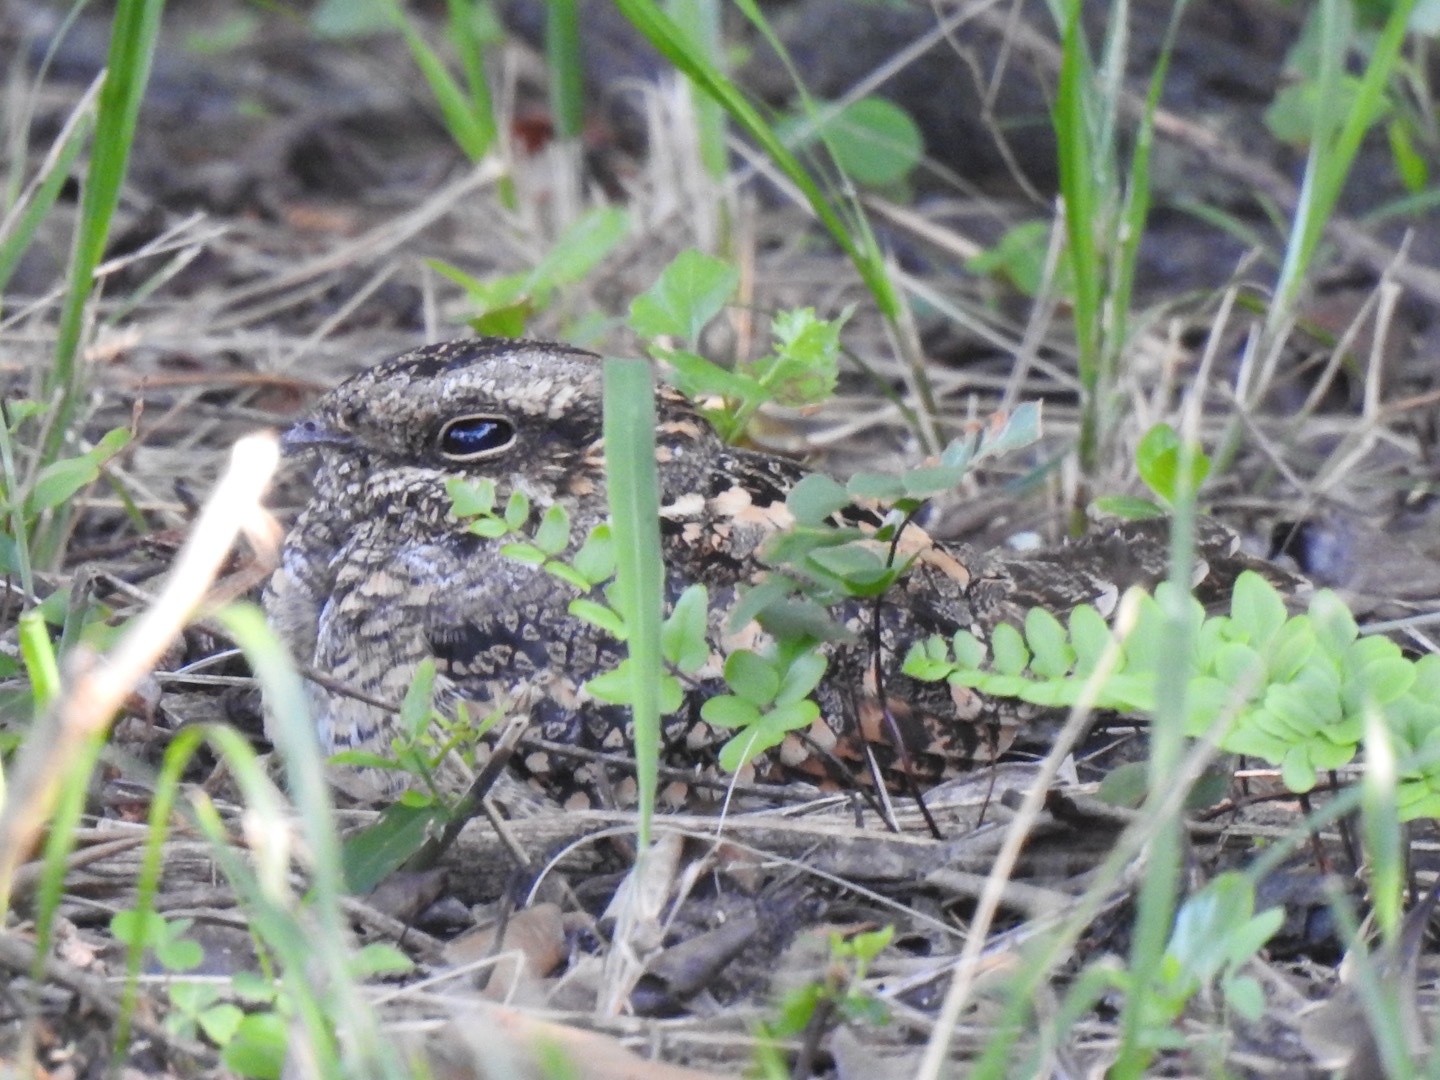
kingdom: Animalia
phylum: Chordata
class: Aves
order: Caprimulgiformes
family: Caprimulgidae
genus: Caprimulgus
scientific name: Caprimulgus pectoralis
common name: Fiery-necked nightjar
